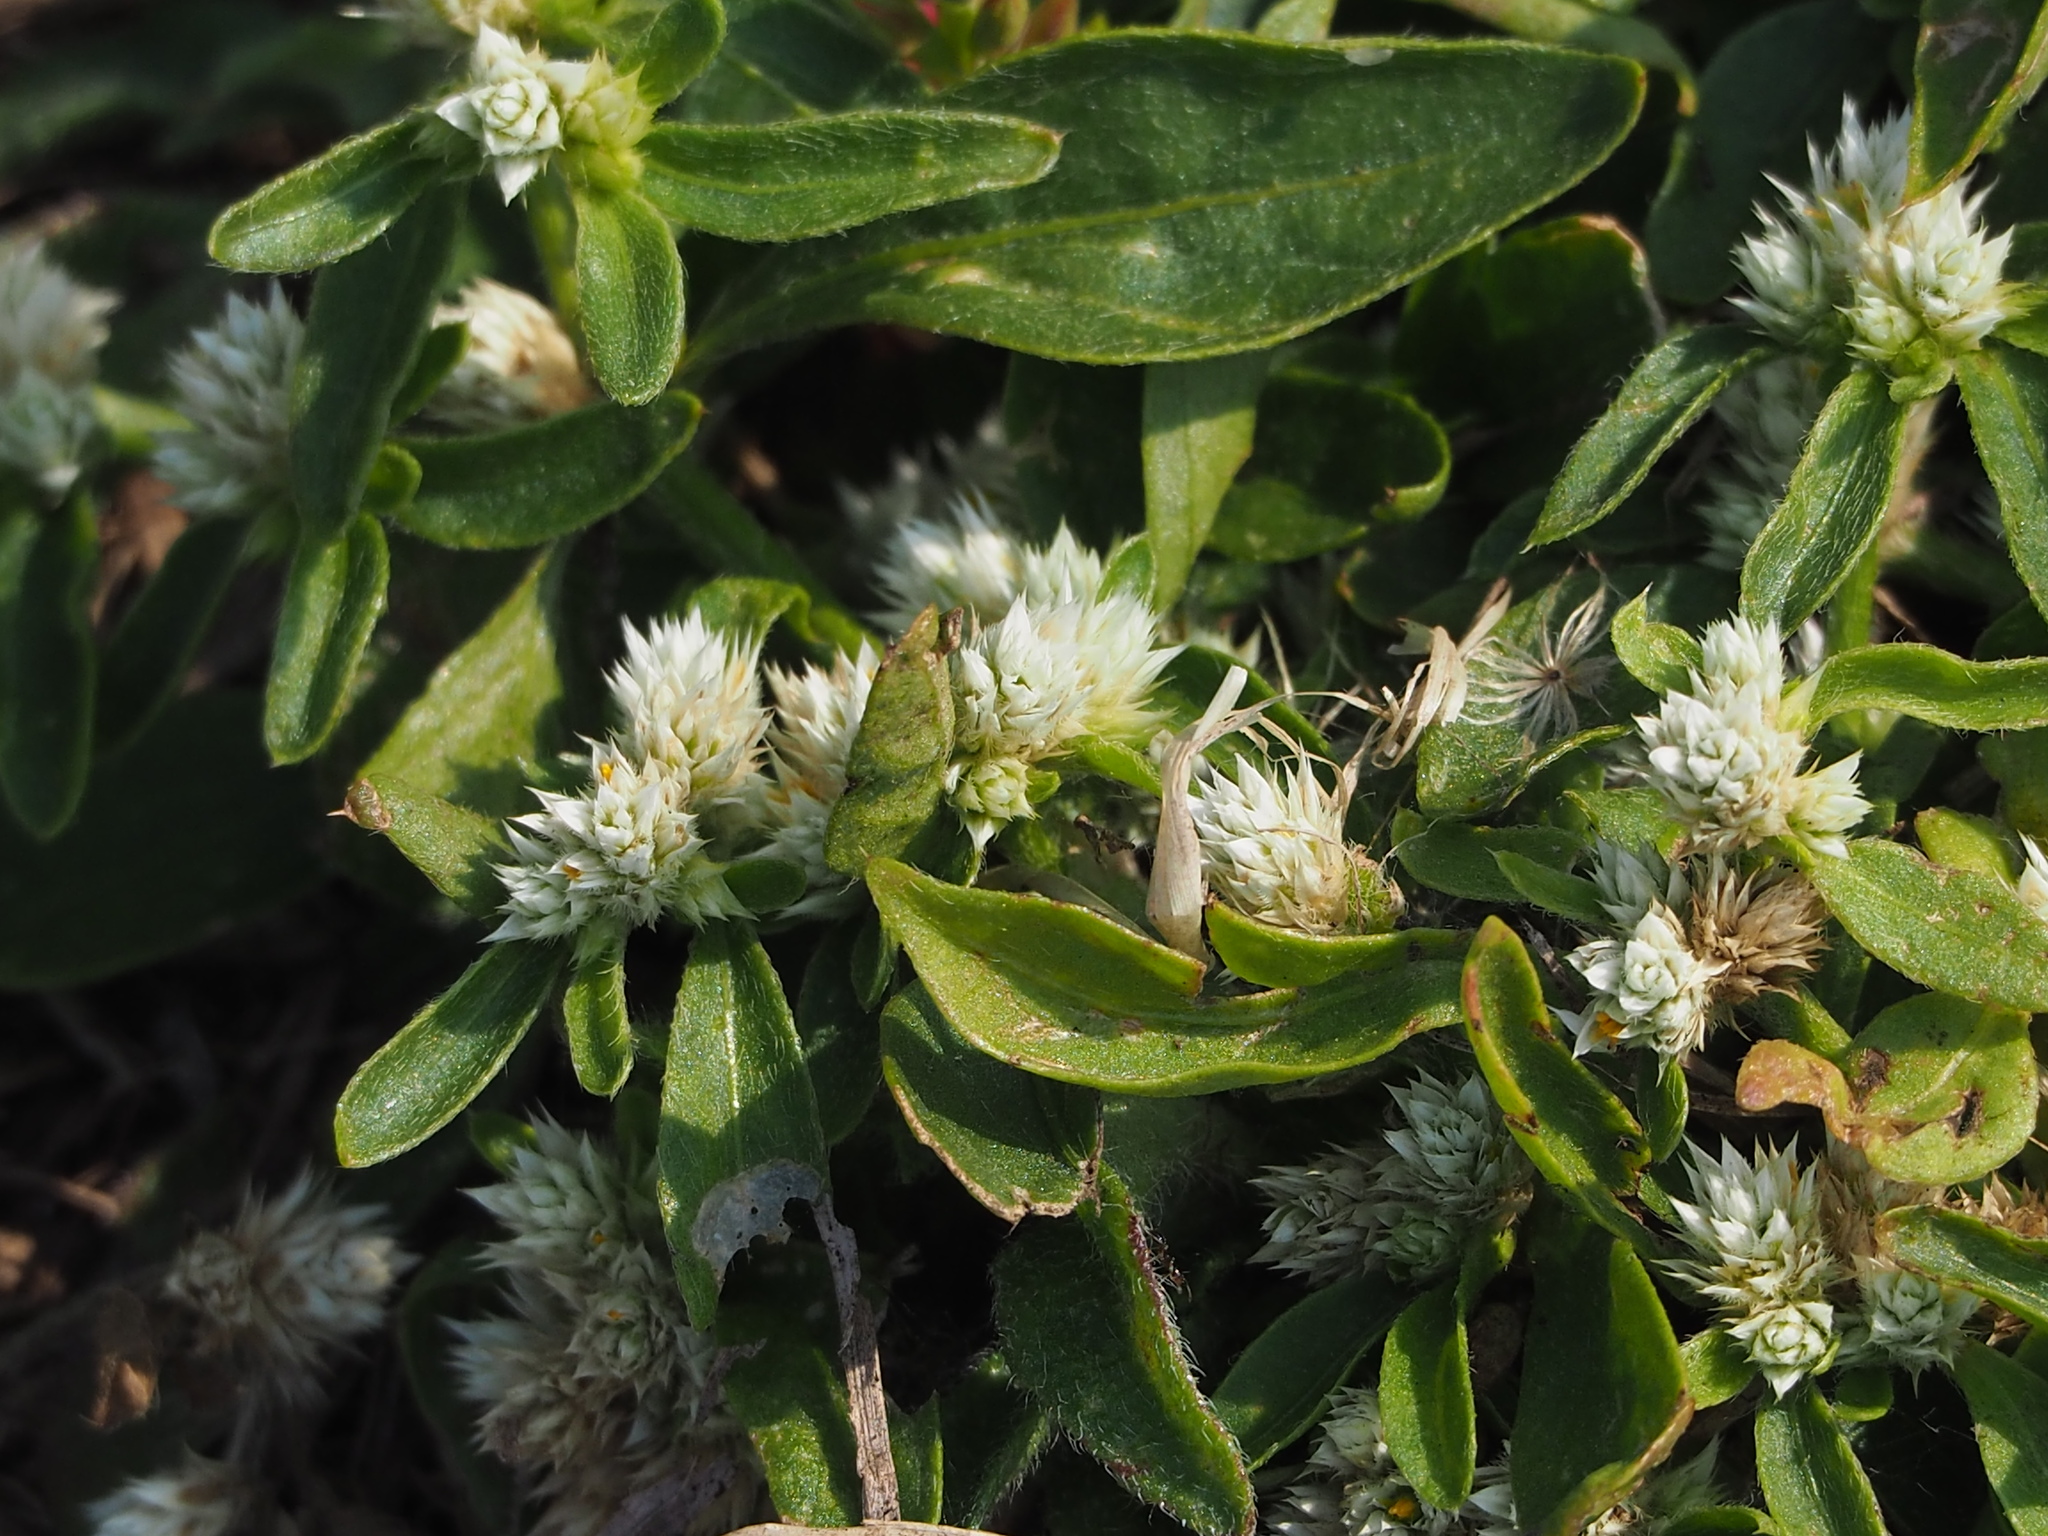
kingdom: Plantae
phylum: Tracheophyta
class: Magnoliopsida
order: Caryophyllales
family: Amaranthaceae
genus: Alternanthera
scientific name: Alternanthera bettzickiana
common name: Calico-plant
